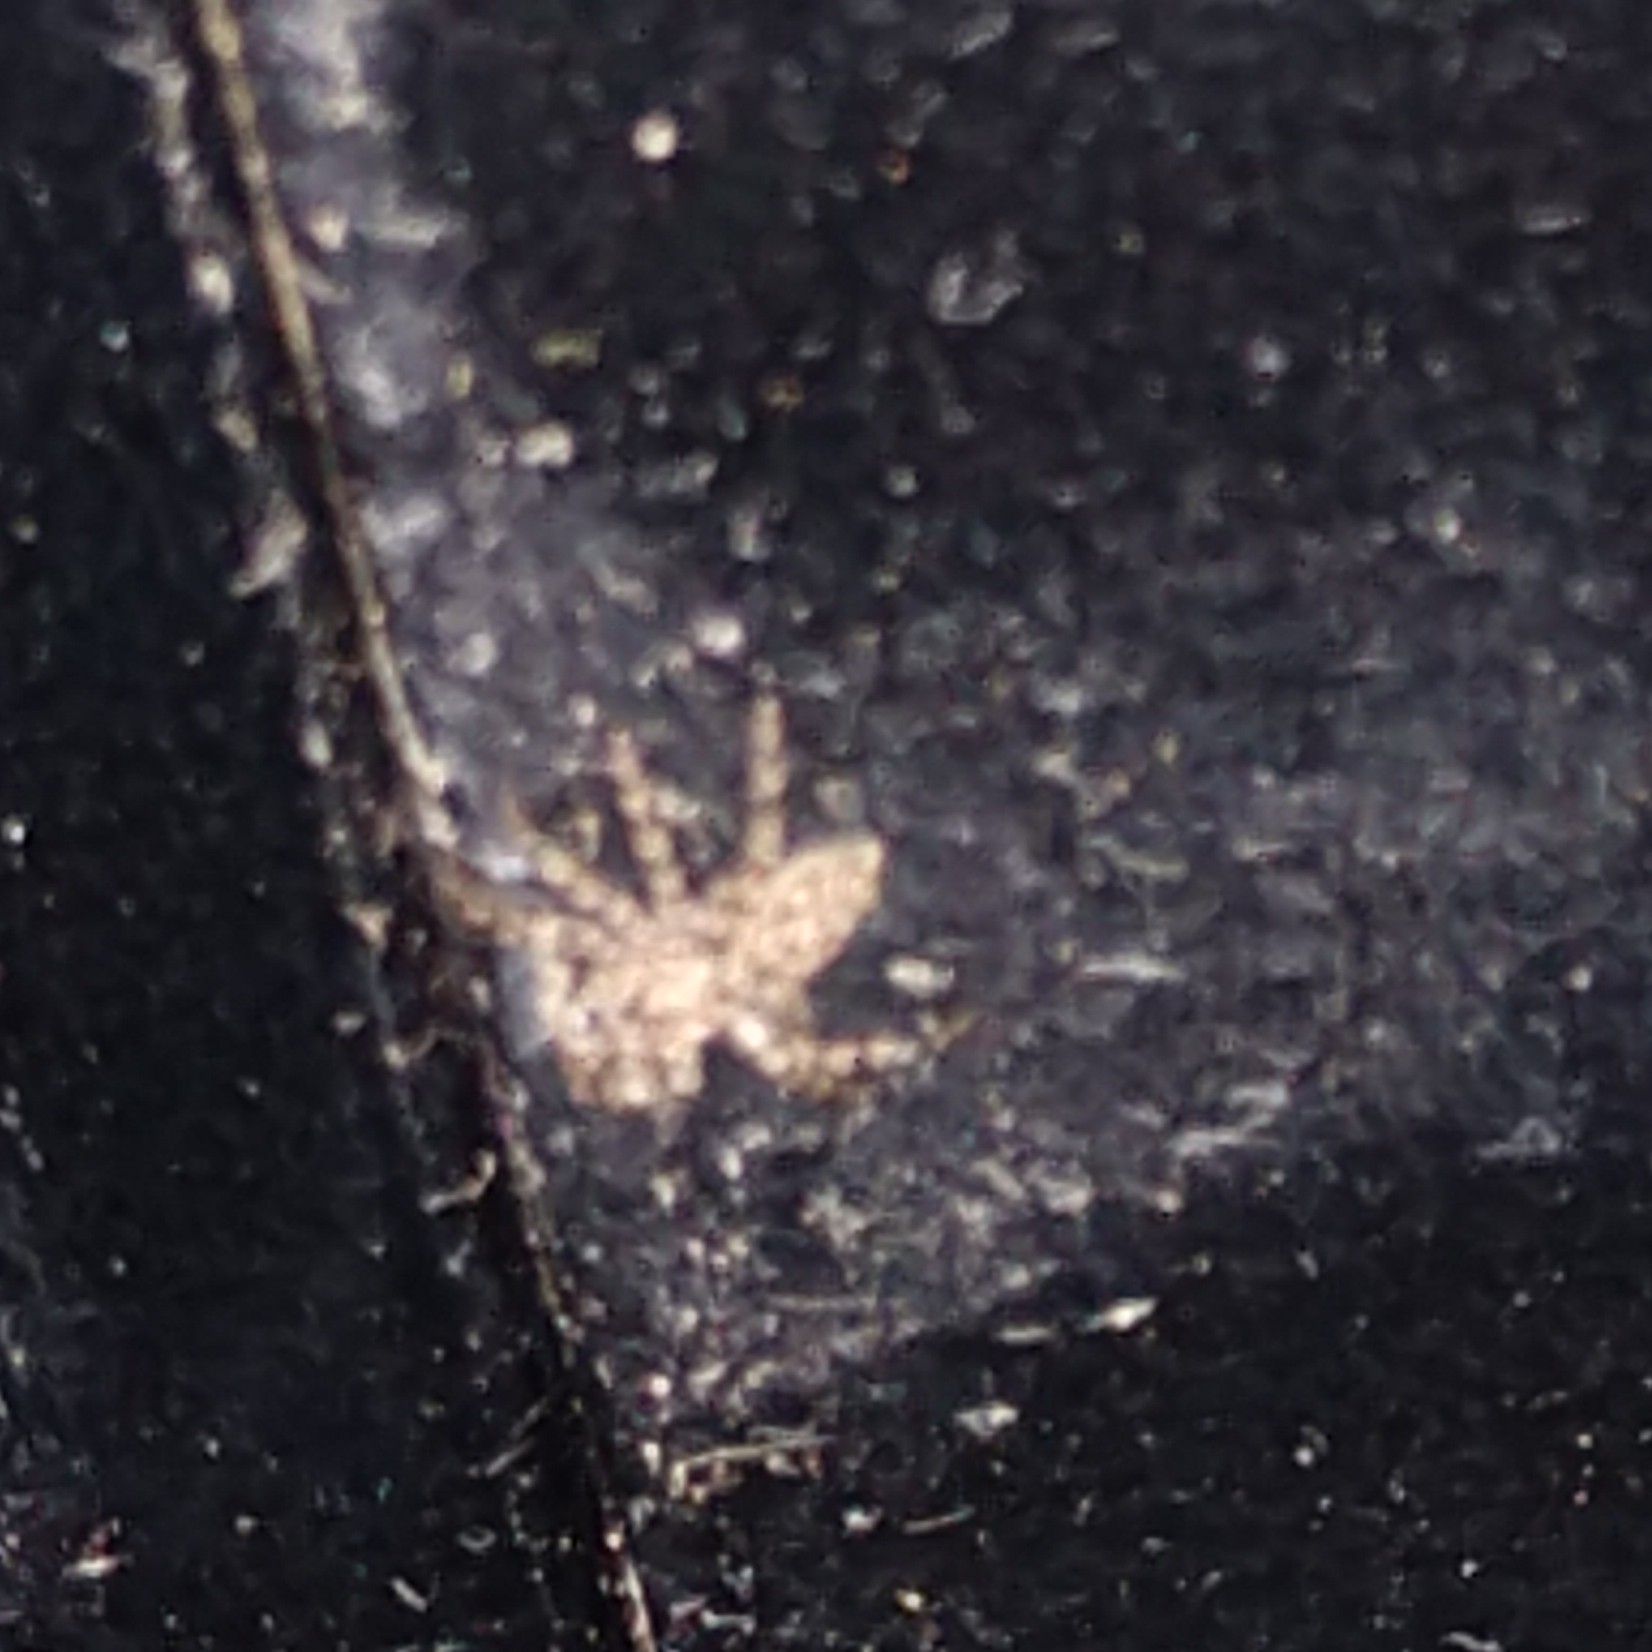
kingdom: Animalia
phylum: Arthropoda
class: Arachnida
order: Araneae
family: Salticidae
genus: Platycryptus
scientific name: Platycryptus undatus
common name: Tan jumping spider
